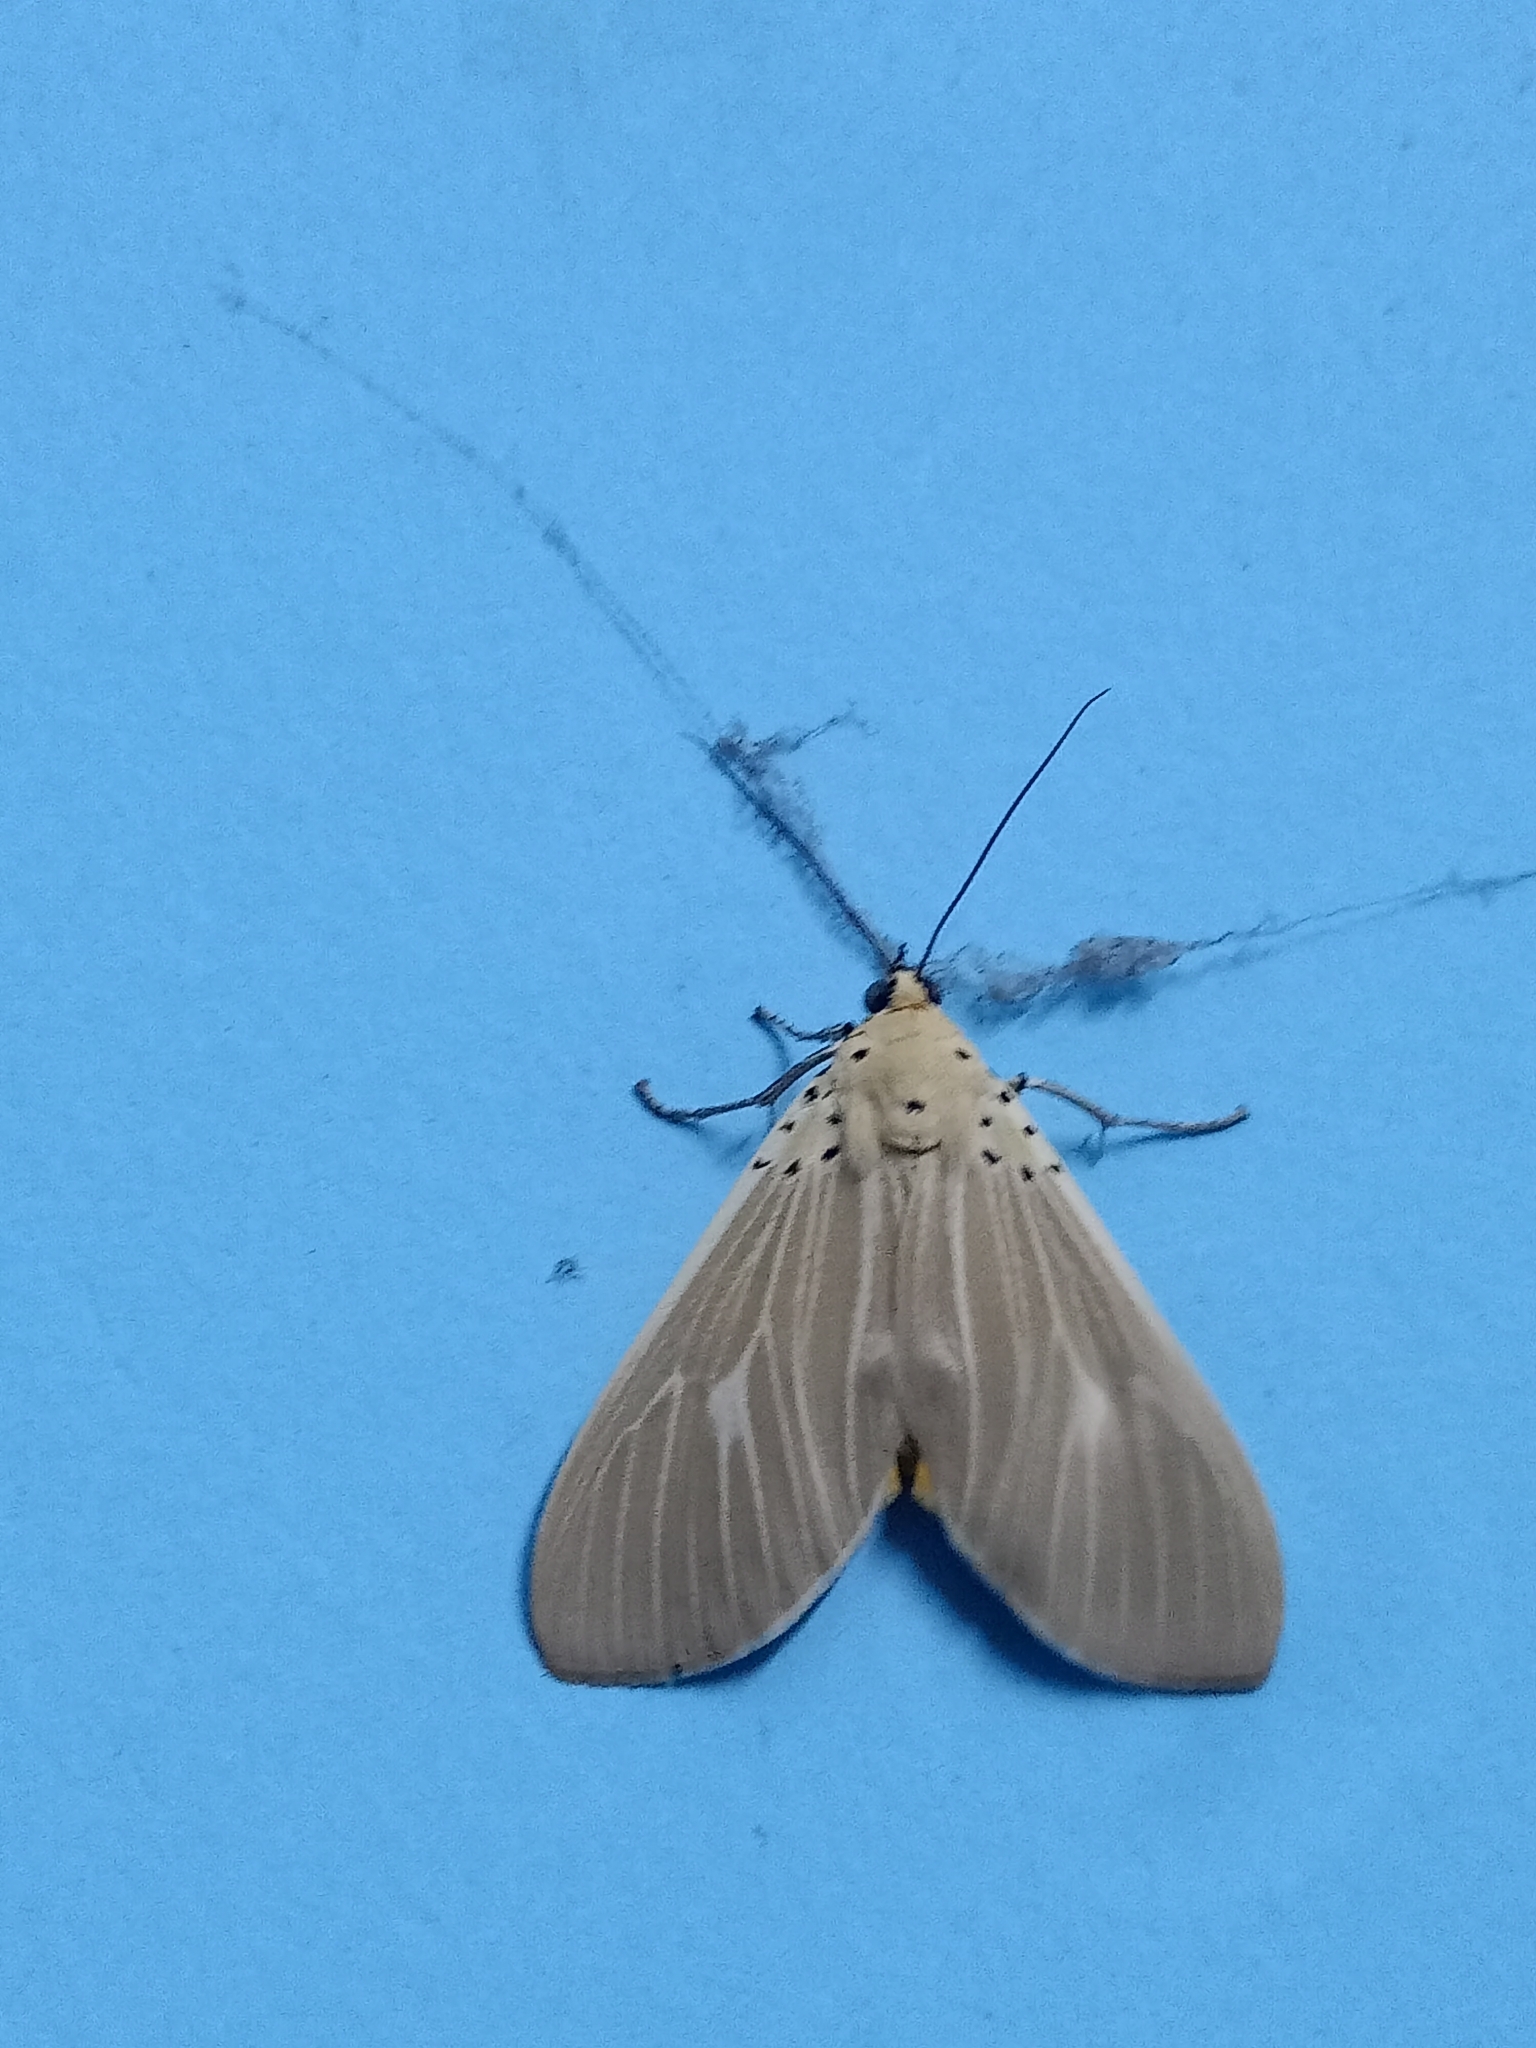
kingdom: Animalia
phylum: Arthropoda
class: Insecta
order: Lepidoptera
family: Erebidae
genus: Asota
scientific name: Asota producta
